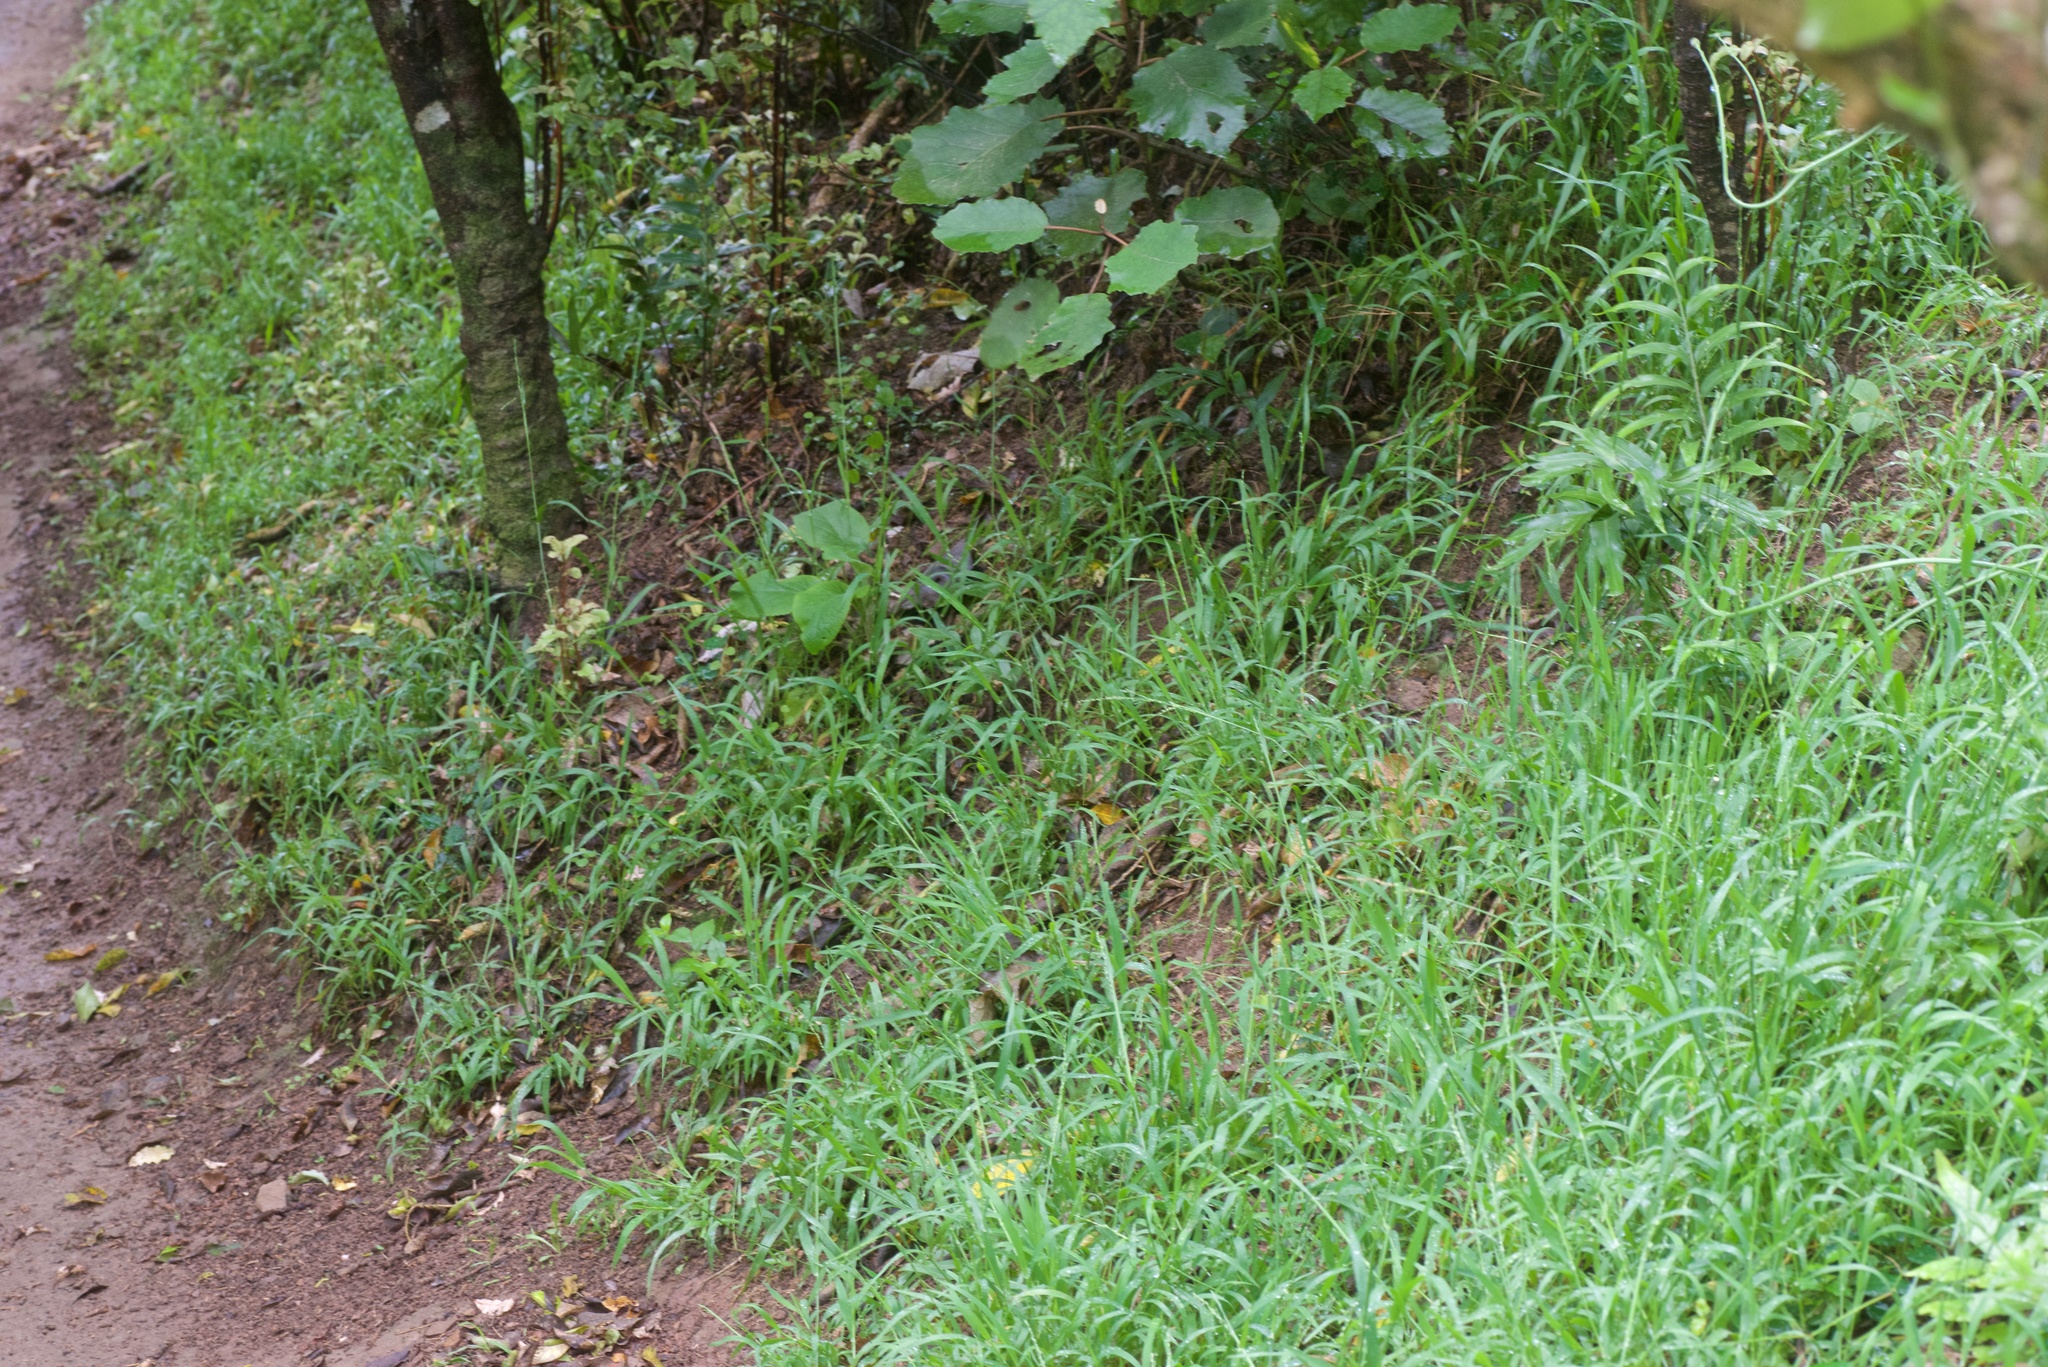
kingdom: Plantae
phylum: Tracheophyta
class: Liliopsida
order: Poales
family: Poaceae
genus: Ehrharta
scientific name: Ehrharta erecta
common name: Panic veldtgrass
